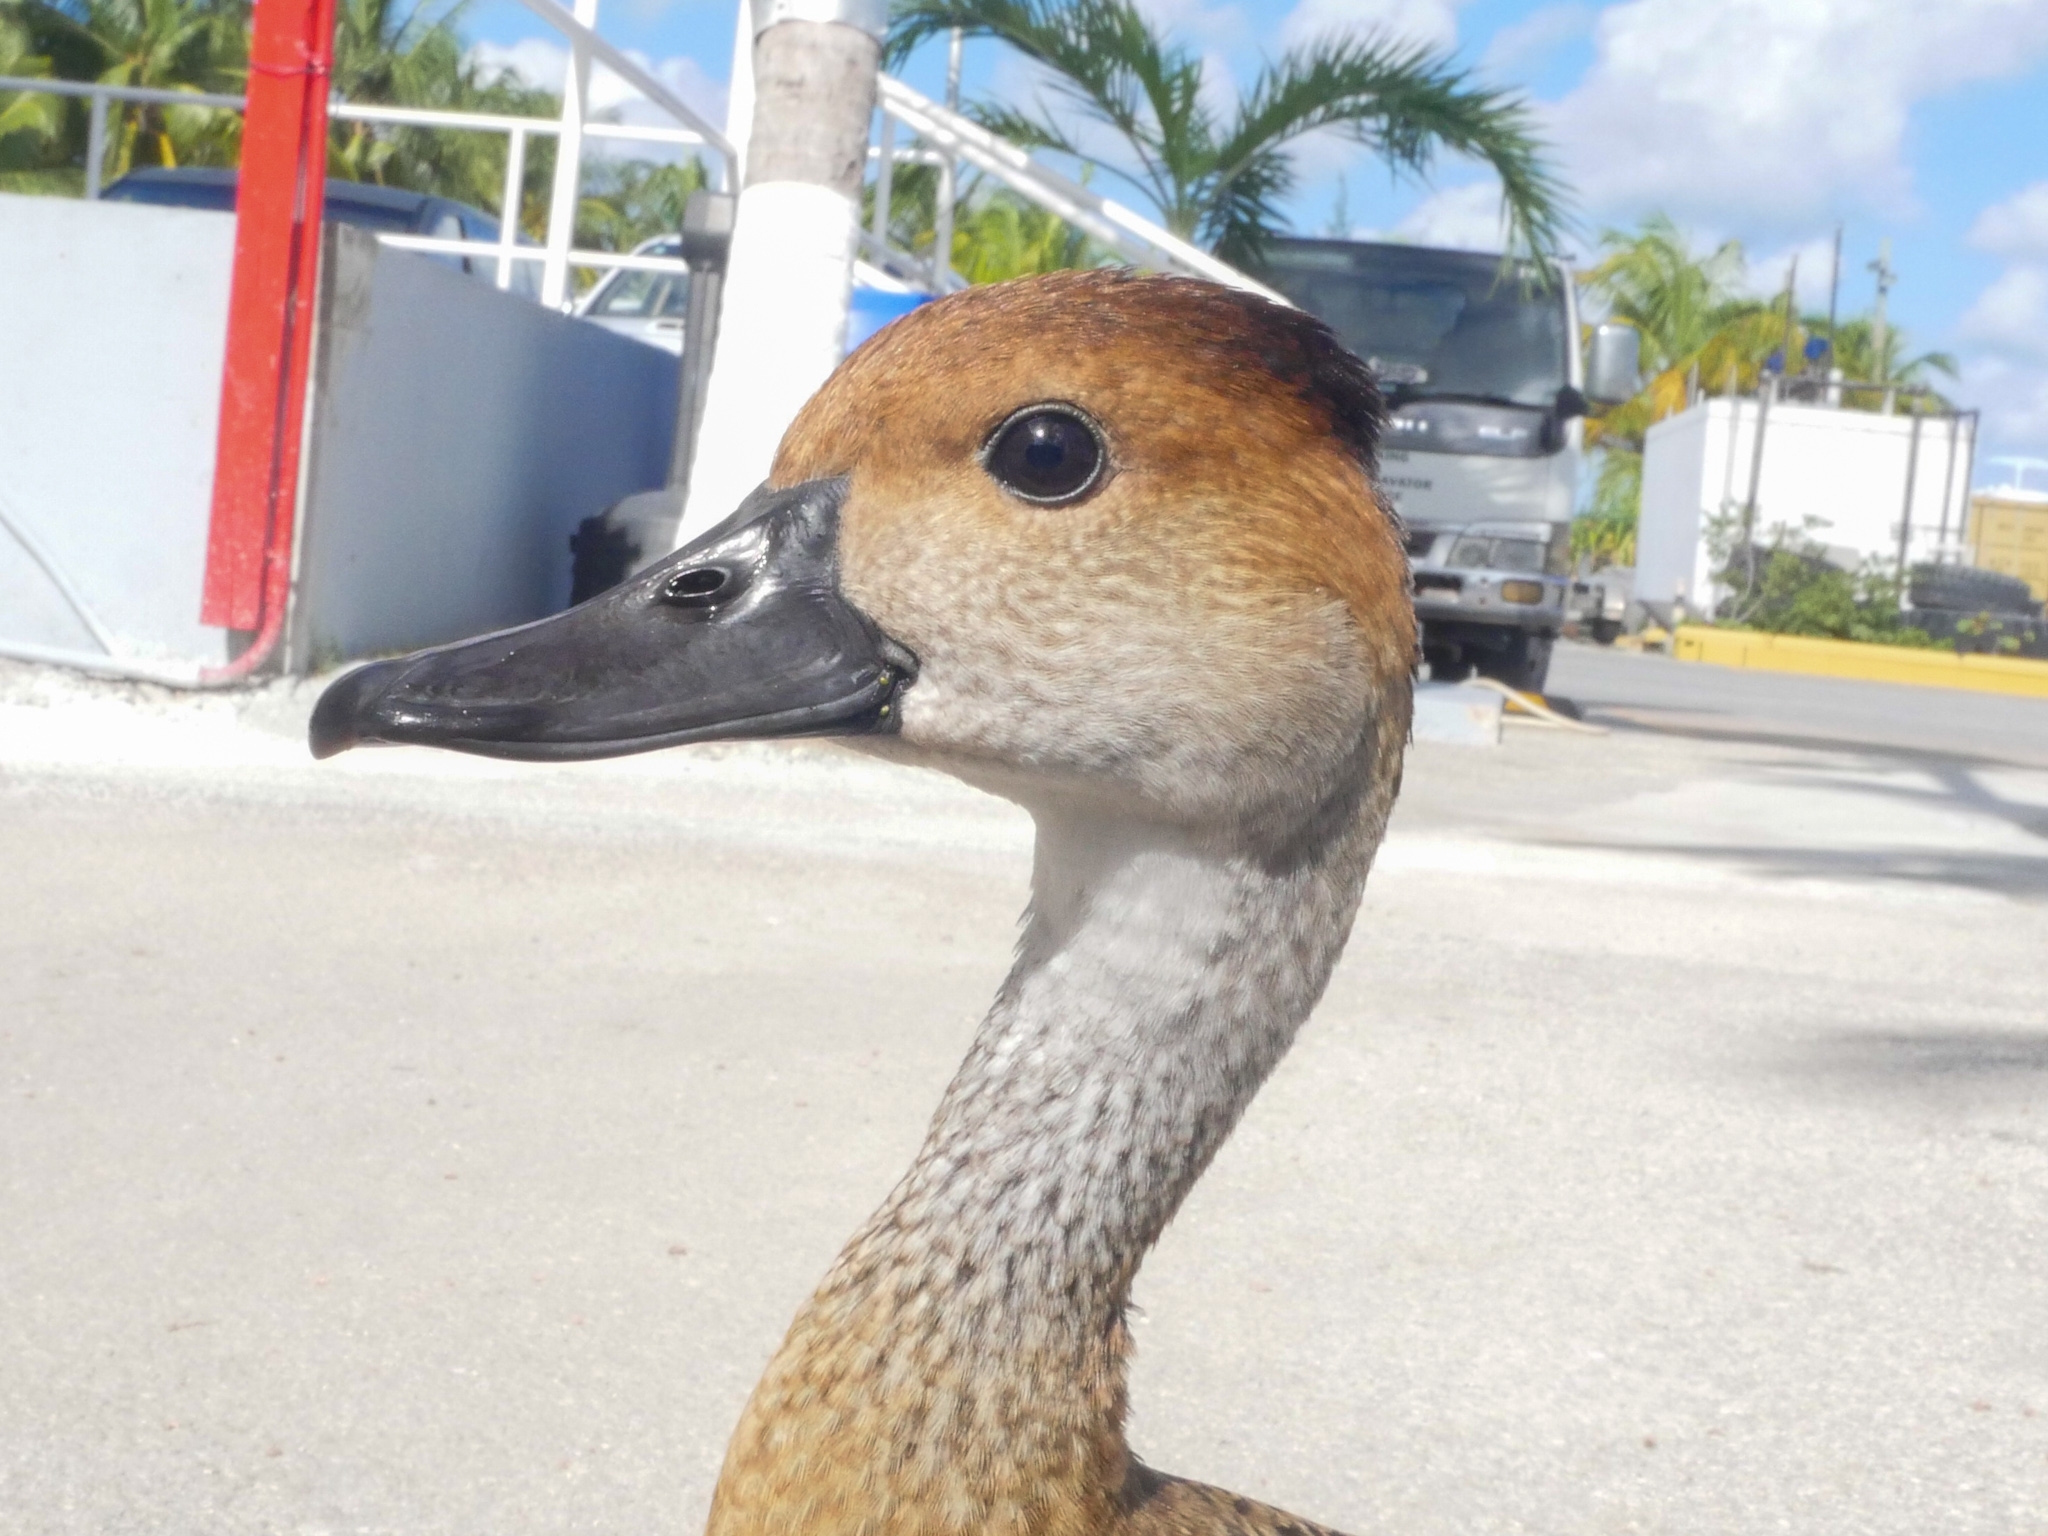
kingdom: Animalia
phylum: Chordata
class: Aves
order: Anseriformes
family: Anatidae
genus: Dendrocygna
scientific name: Dendrocygna arborea
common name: West indian whistling duck
